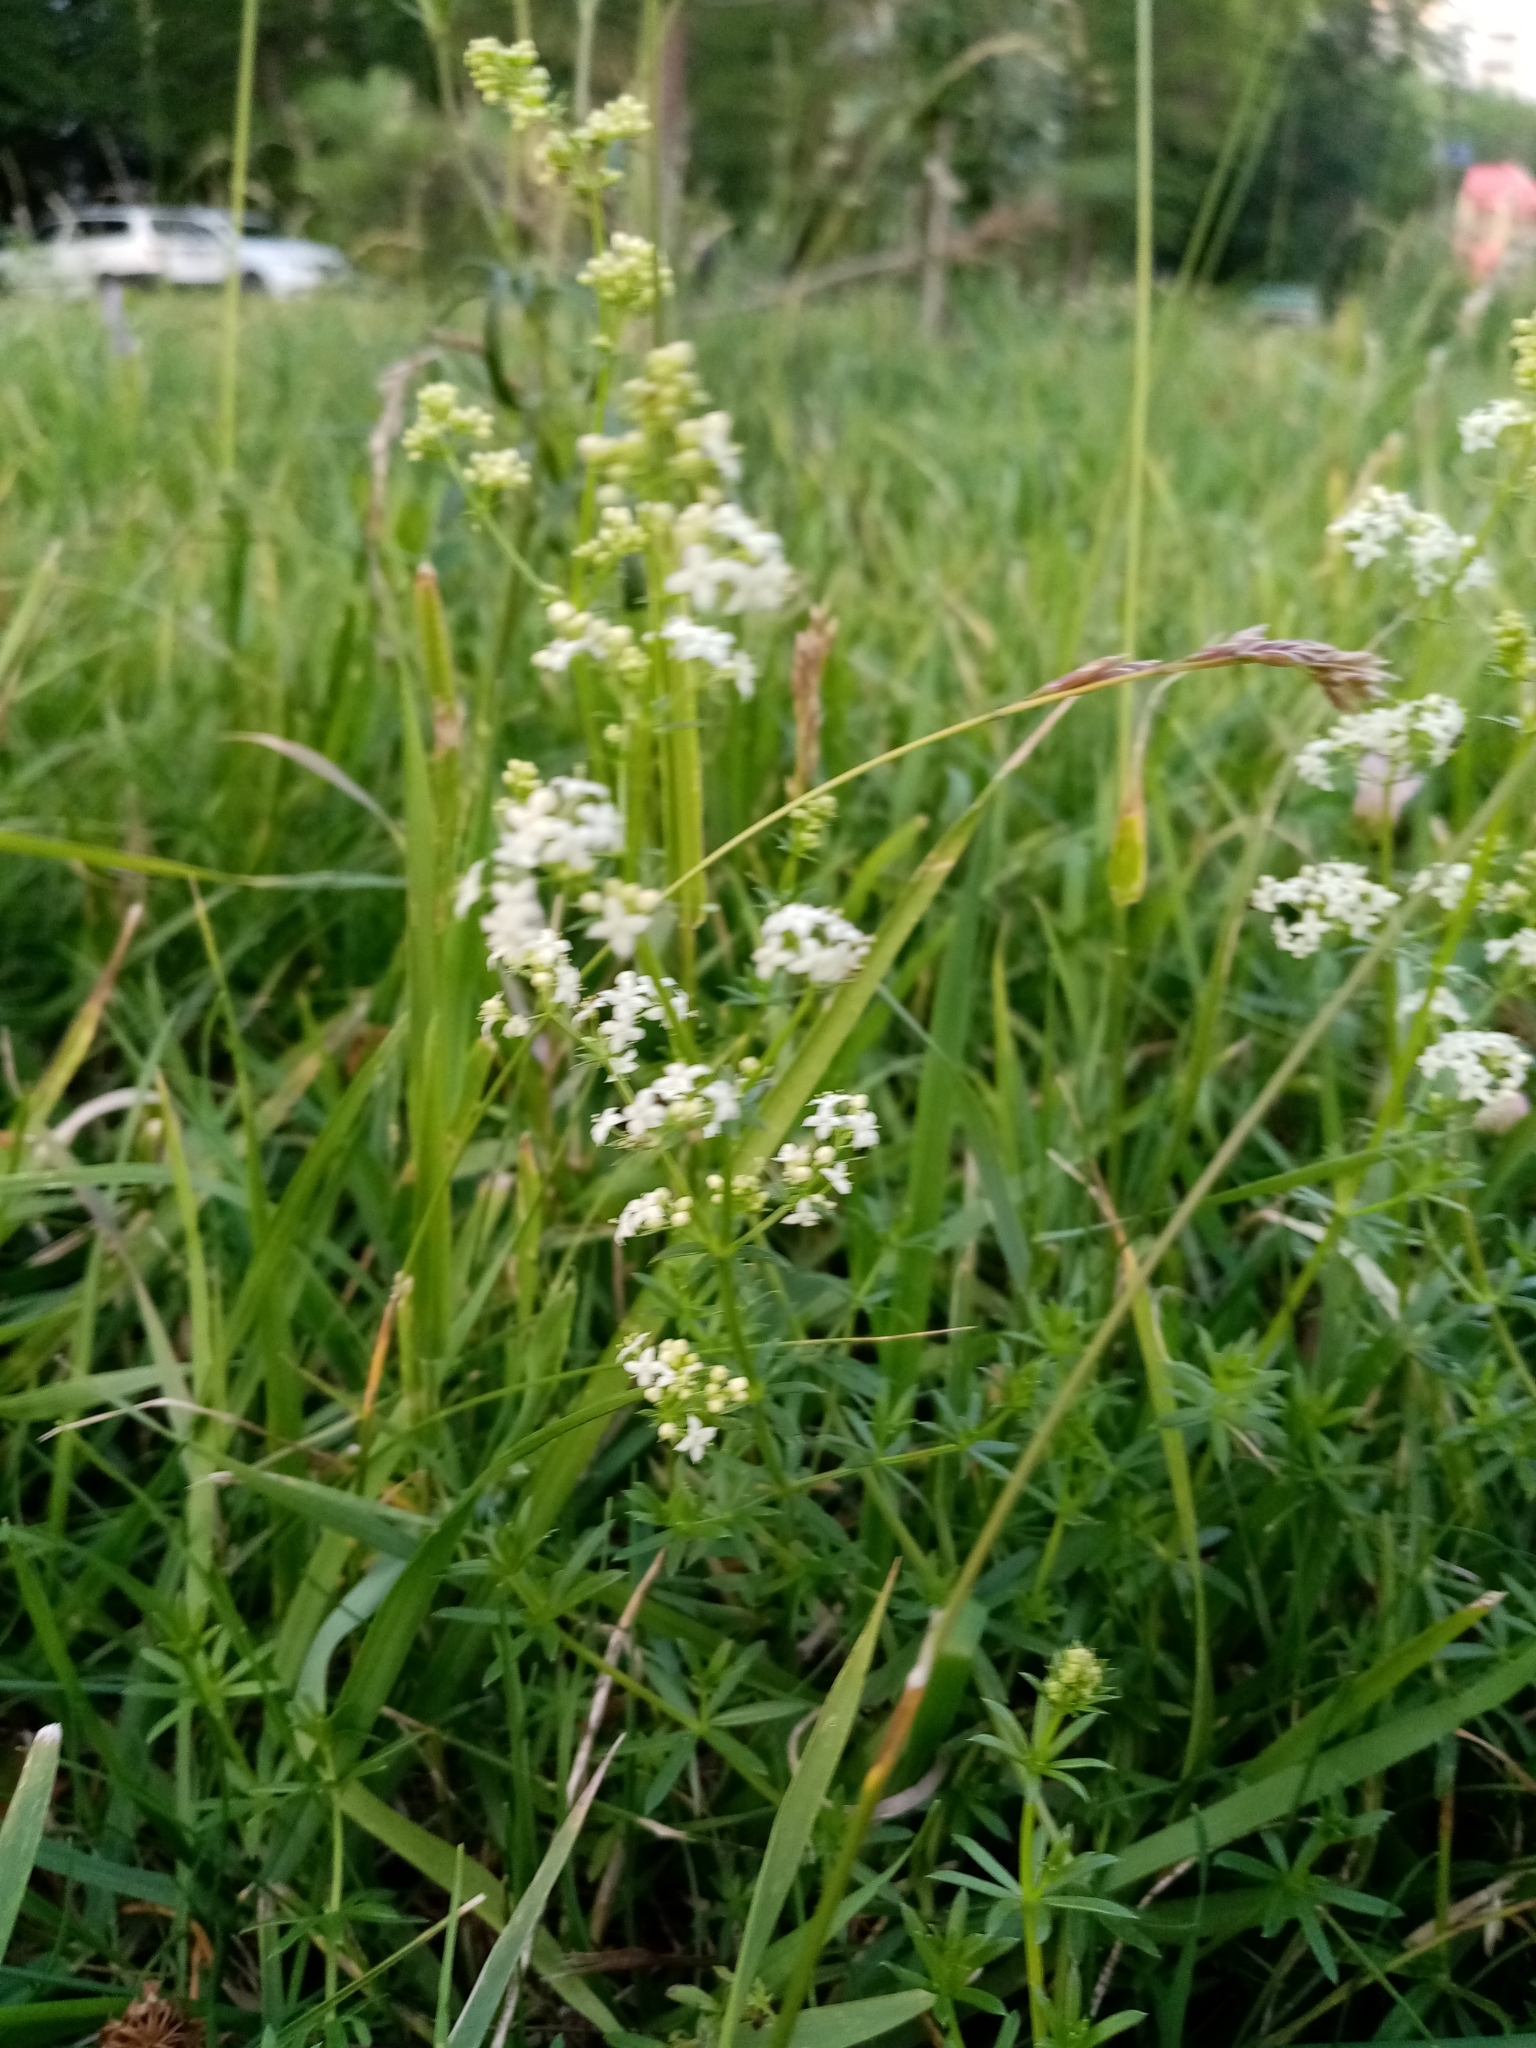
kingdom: Plantae
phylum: Tracheophyta
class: Magnoliopsida
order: Gentianales
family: Rubiaceae
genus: Galium
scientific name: Galium mollugo
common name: Hedge bedstraw
